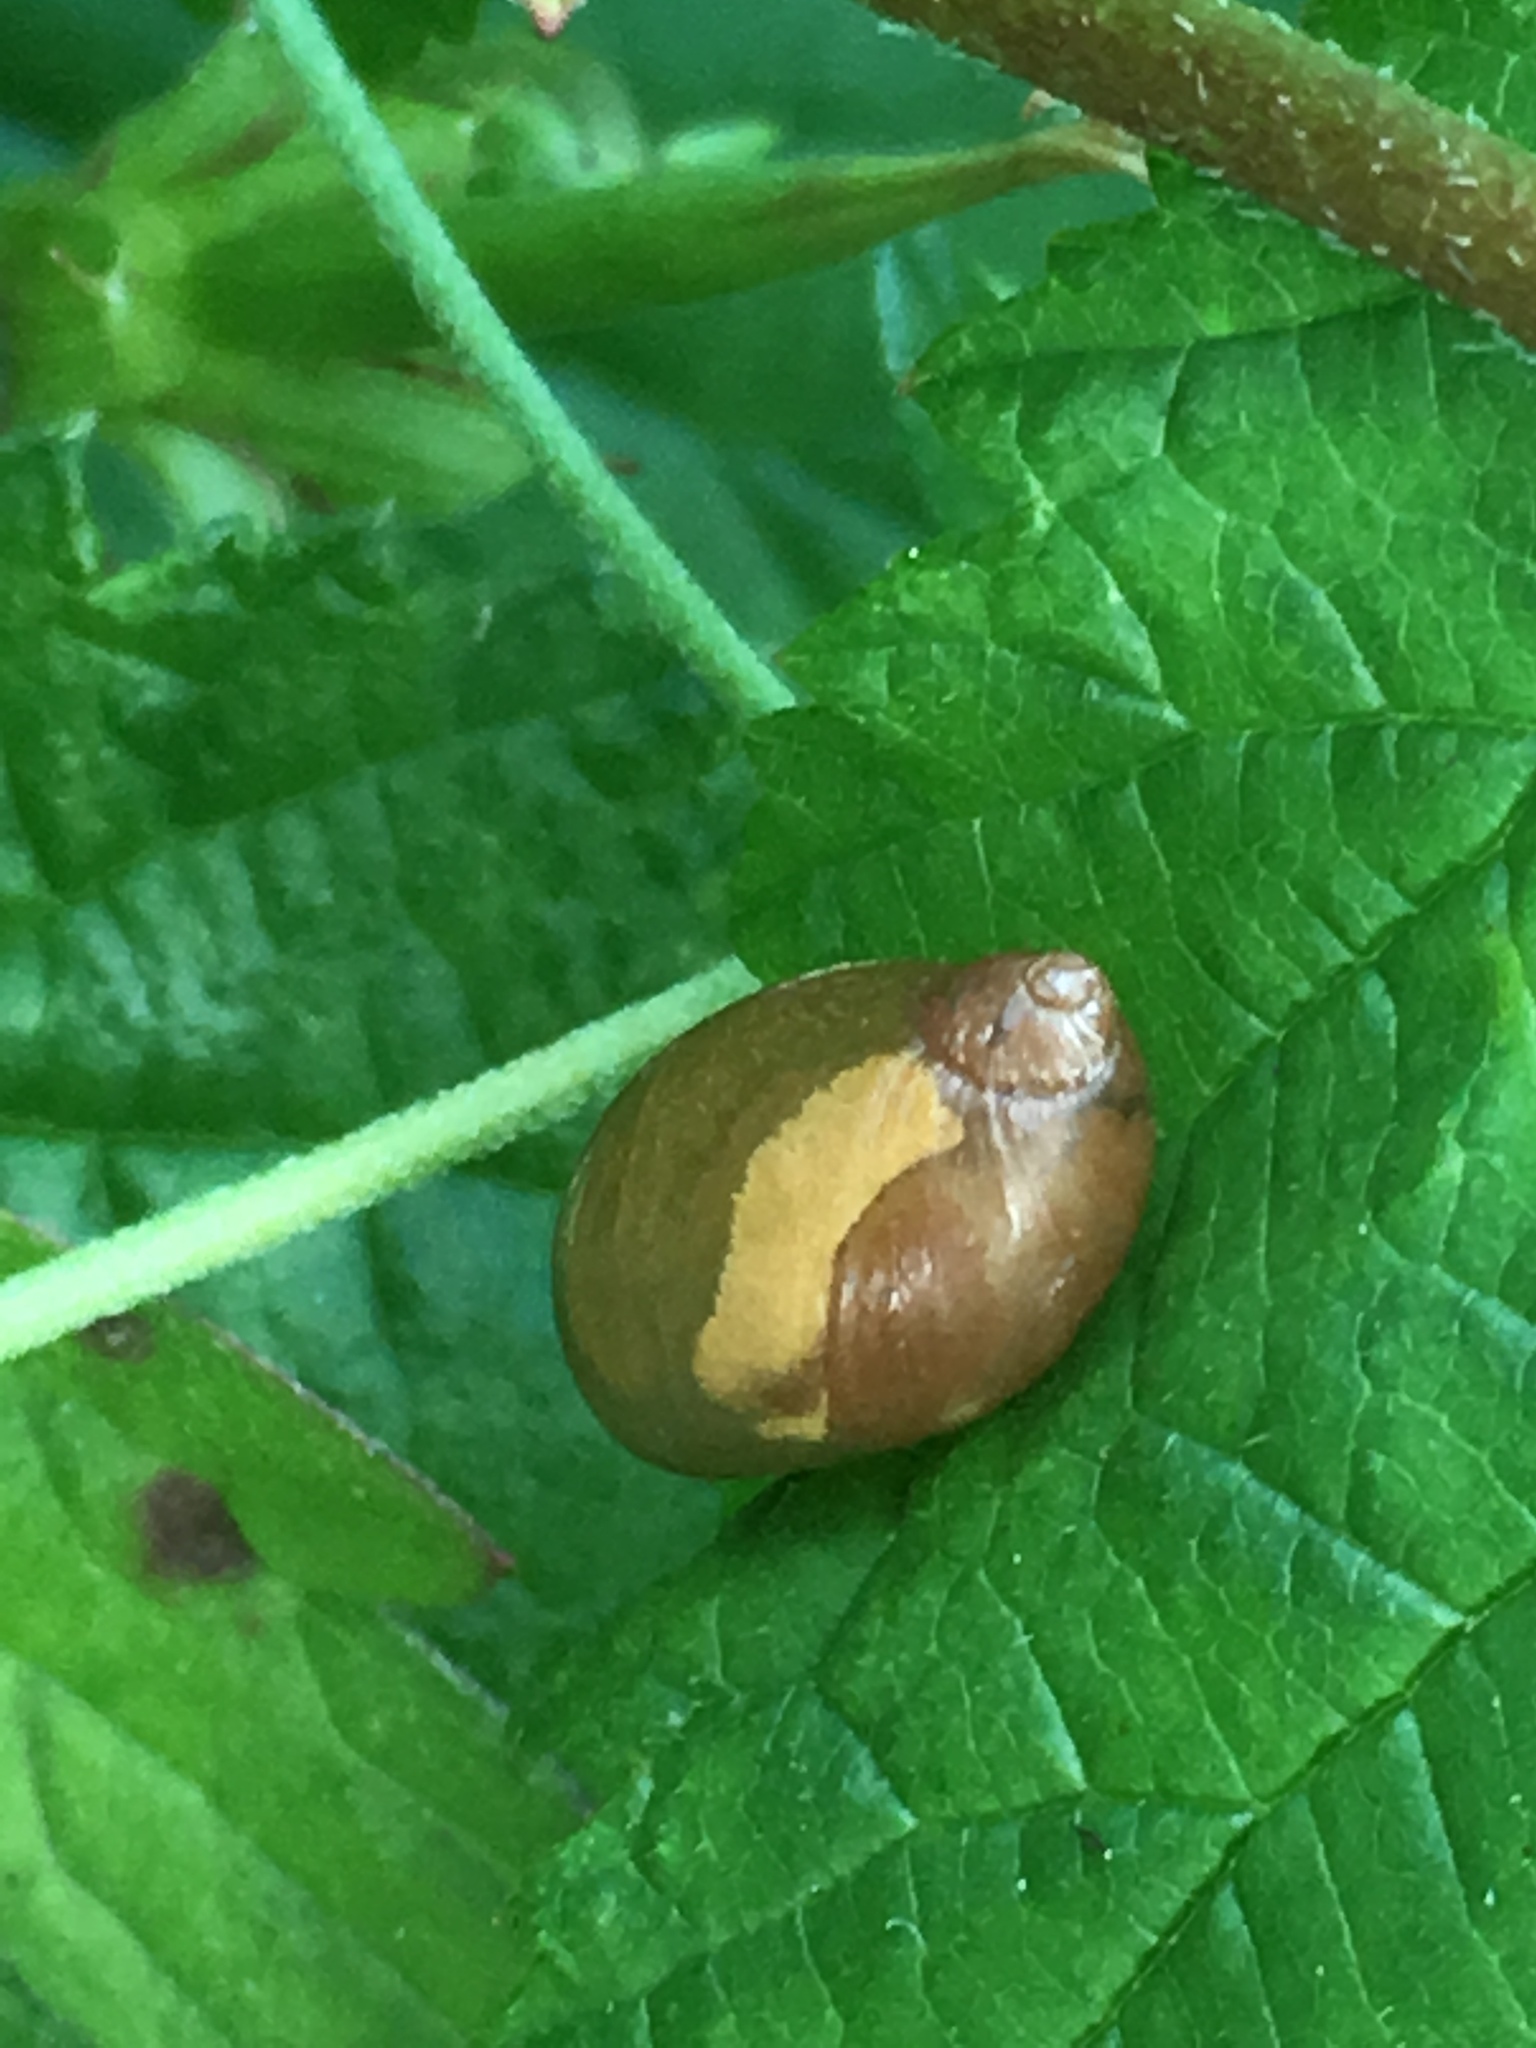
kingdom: Animalia
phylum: Mollusca
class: Gastropoda
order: Stylommatophora
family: Succineidae
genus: Succinea
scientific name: Succinea putris
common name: European ambersnail
